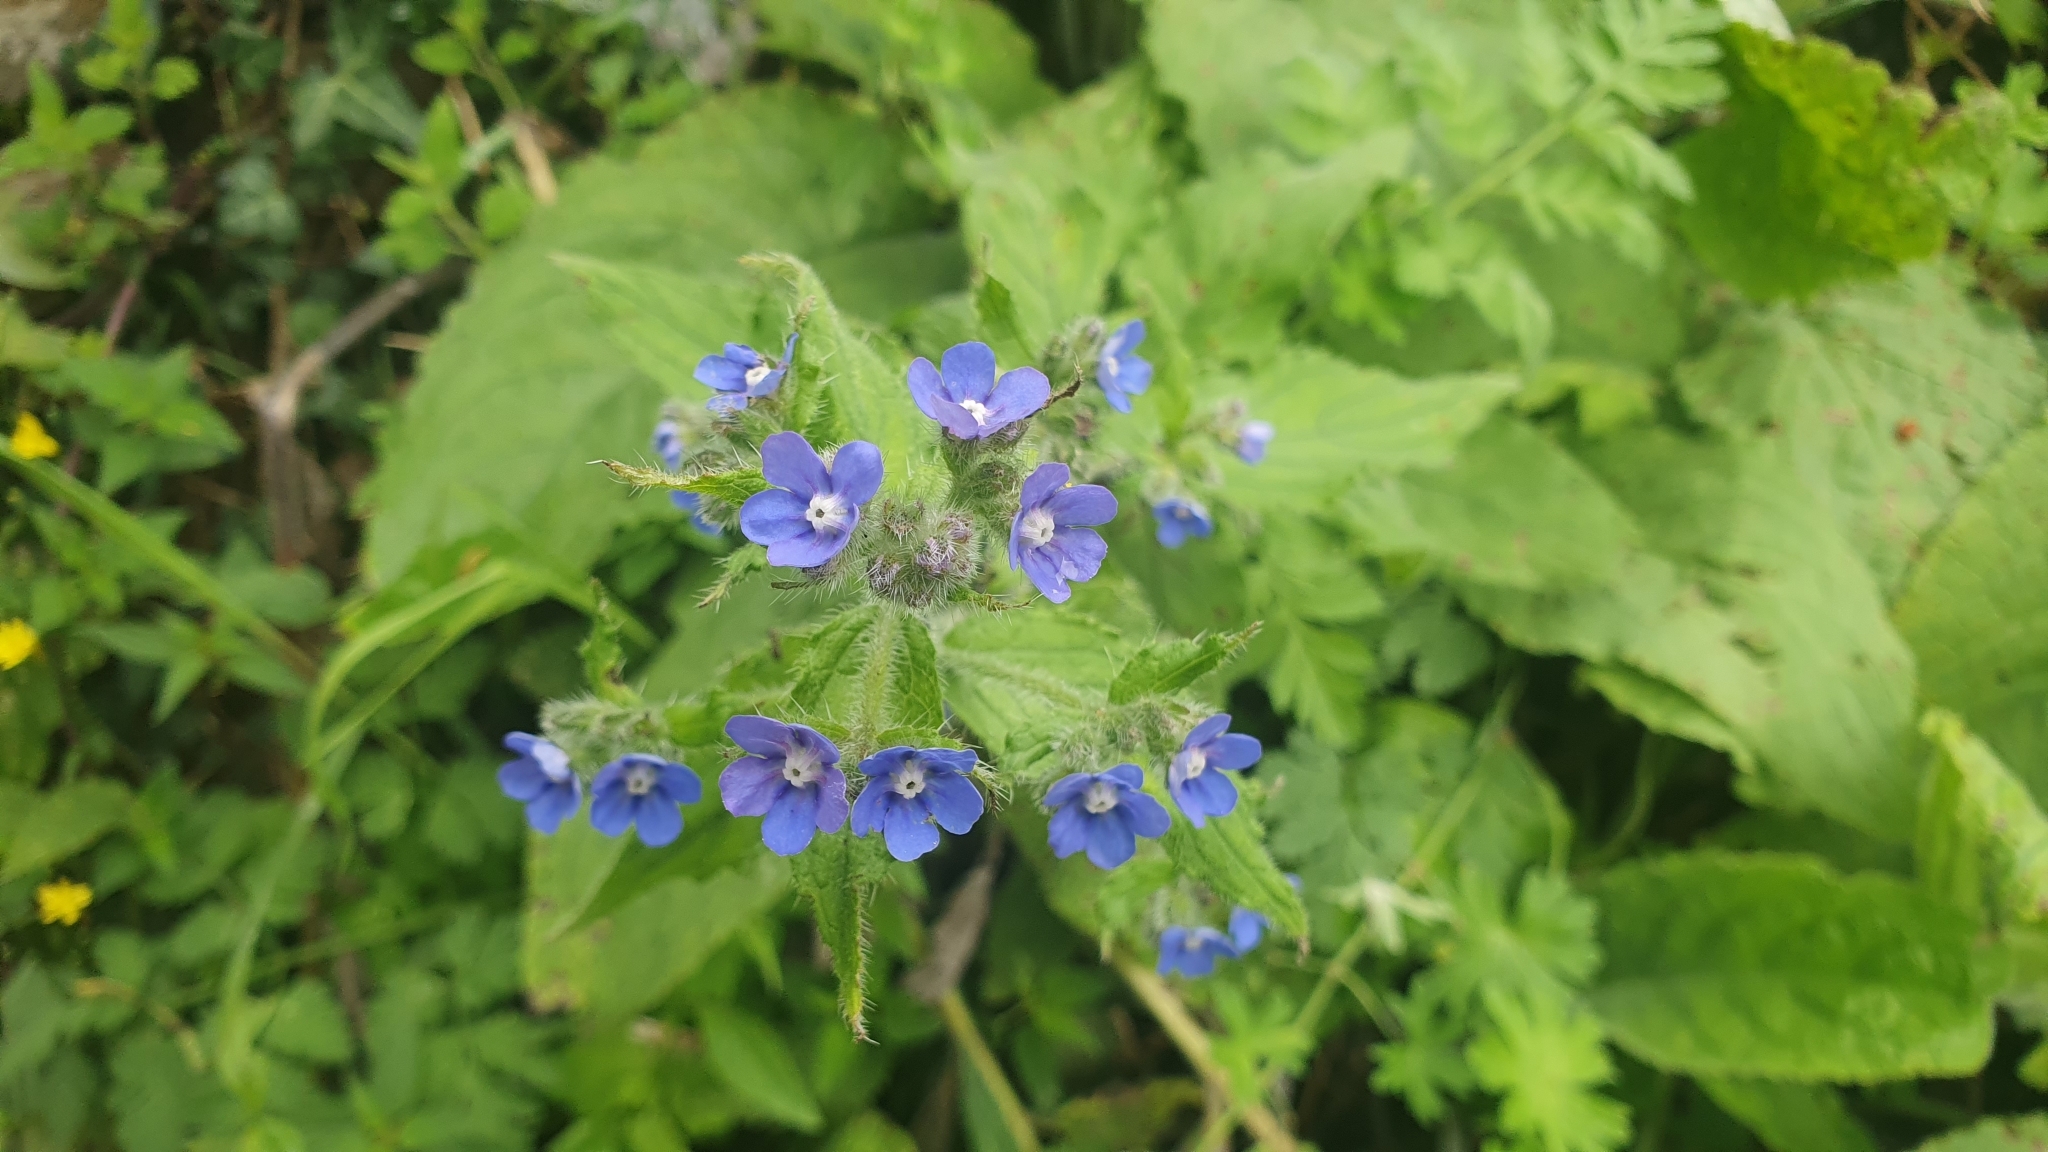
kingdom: Plantae
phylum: Tracheophyta
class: Magnoliopsida
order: Boraginales
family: Boraginaceae
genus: Pentaglottis
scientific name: Pentaglottis sempervirens
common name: Green alkanet
